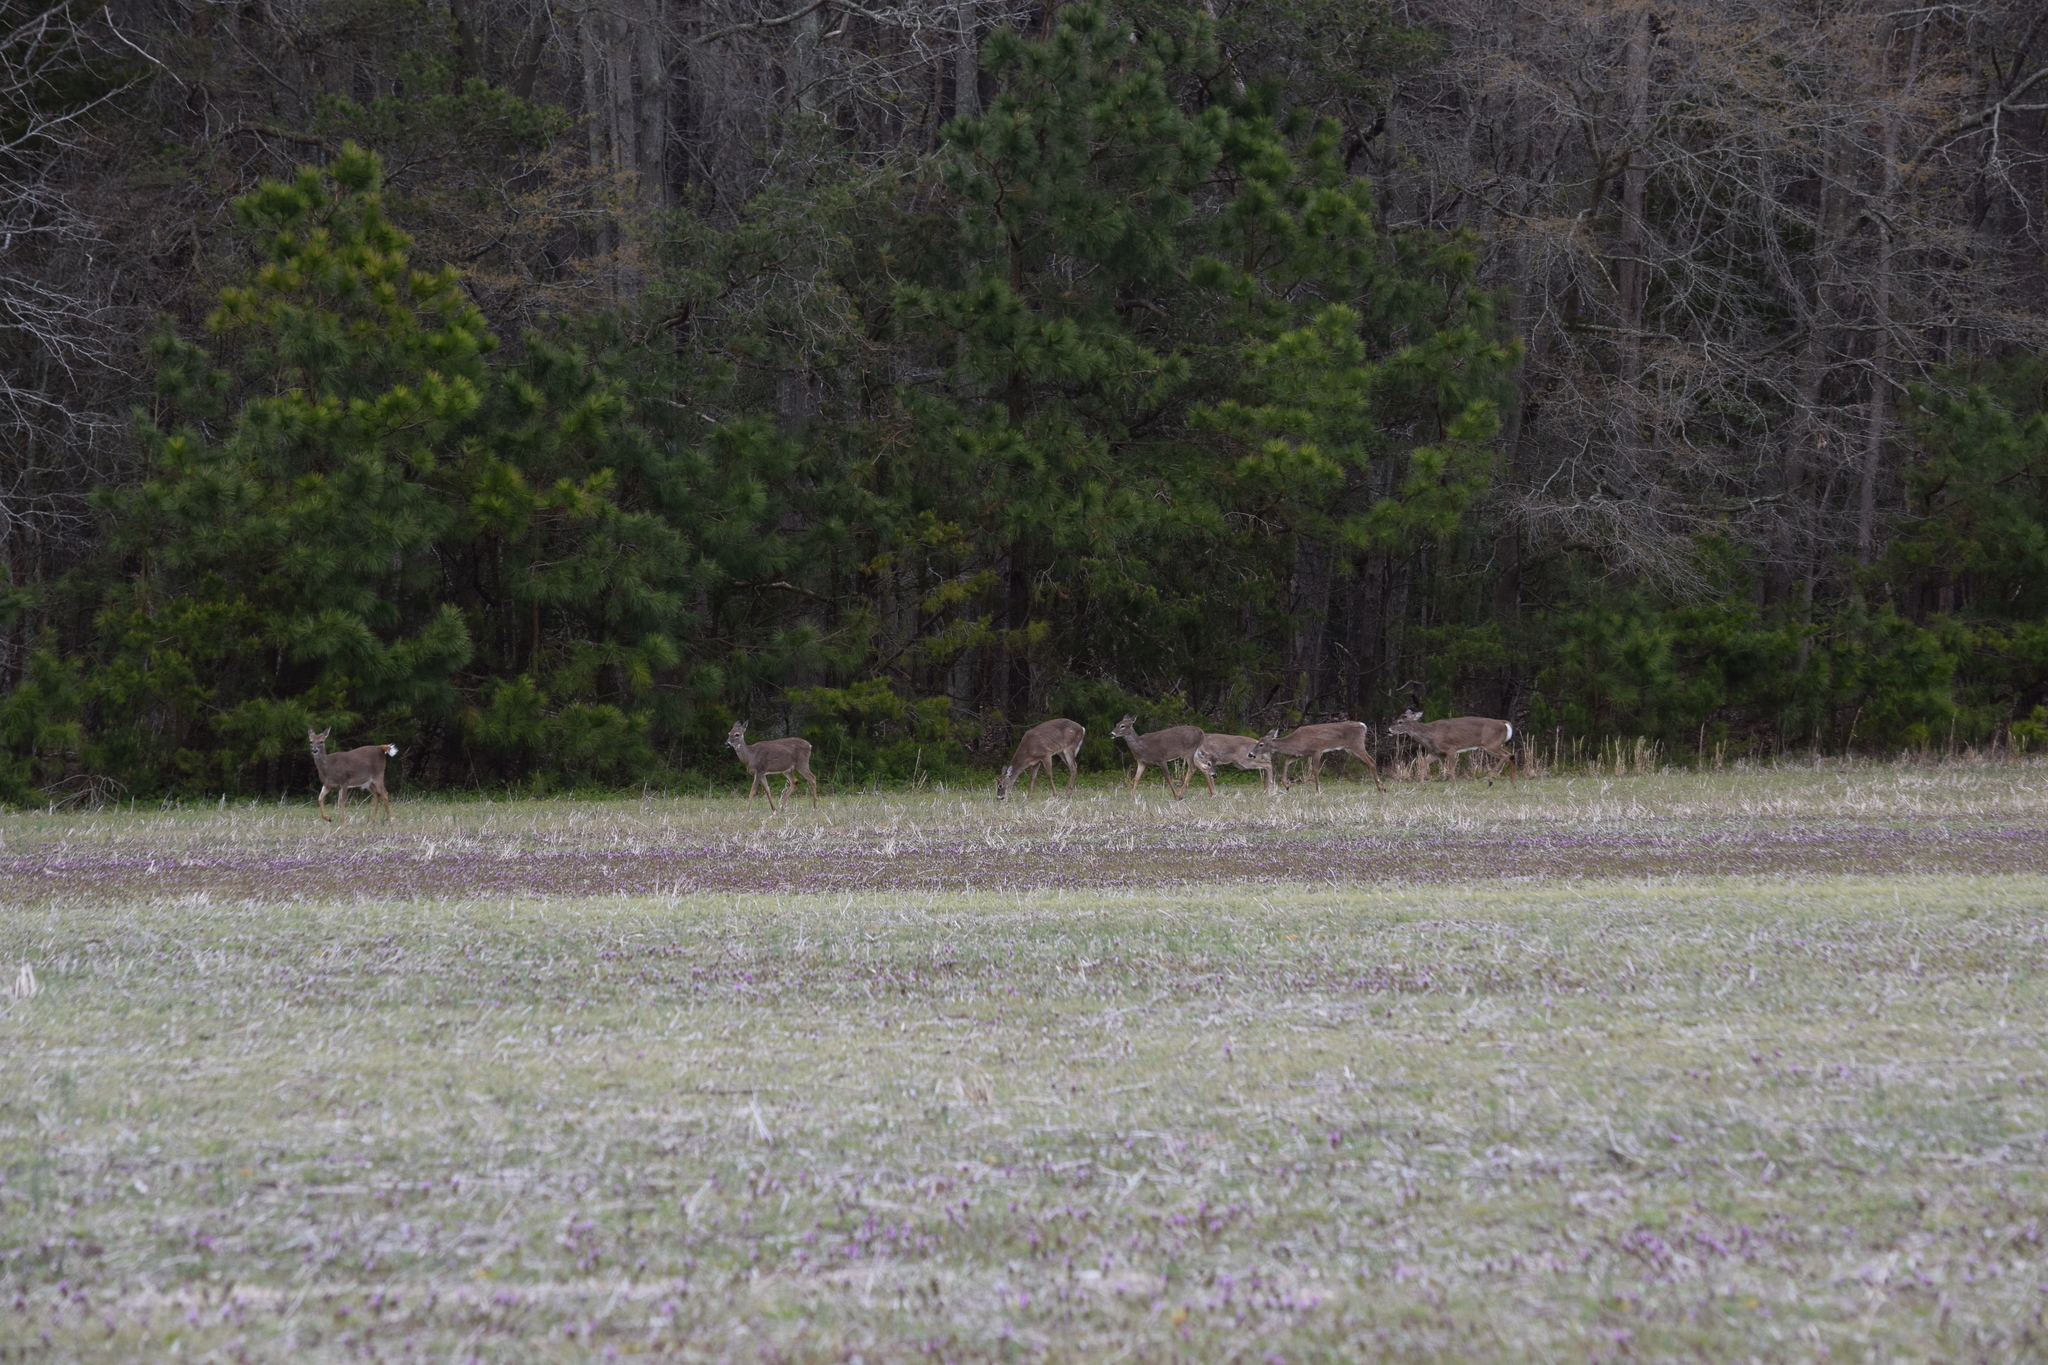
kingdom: Animalia
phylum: Chordata
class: Mammalia
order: Artiodactyla
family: Cervidae
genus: Odocoileus
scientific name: Odocoileus virginianus
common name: White-tailed deer
